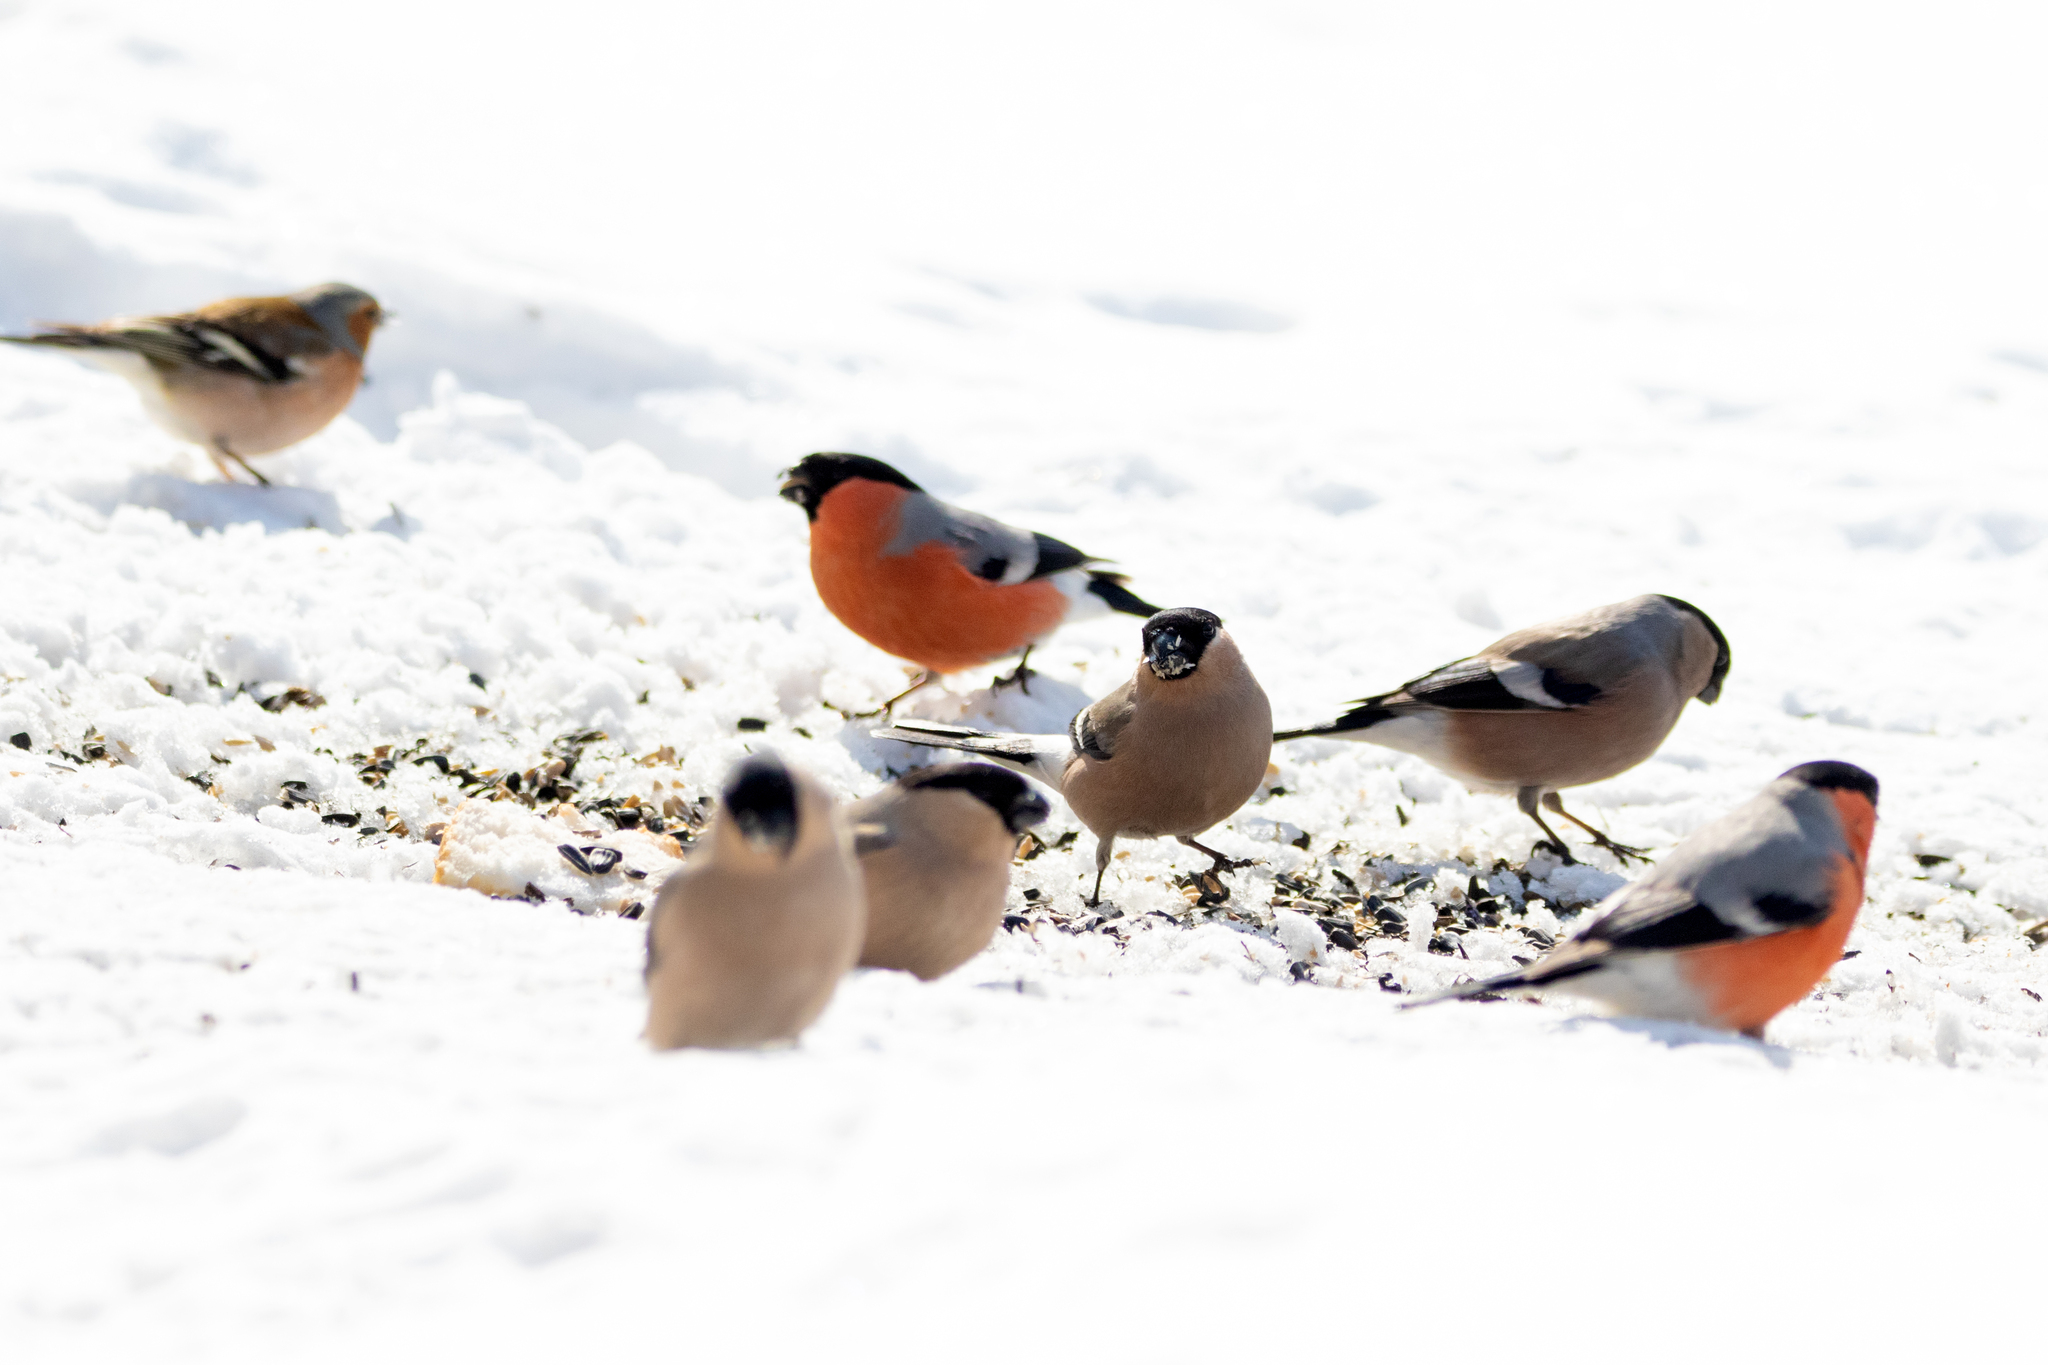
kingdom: Animalia
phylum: Chordata
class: Aves
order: Passeriformes
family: Fringillidae
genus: Pyrrhula
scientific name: Pyrrhula pyrrhula
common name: Eurasian bullfinch
